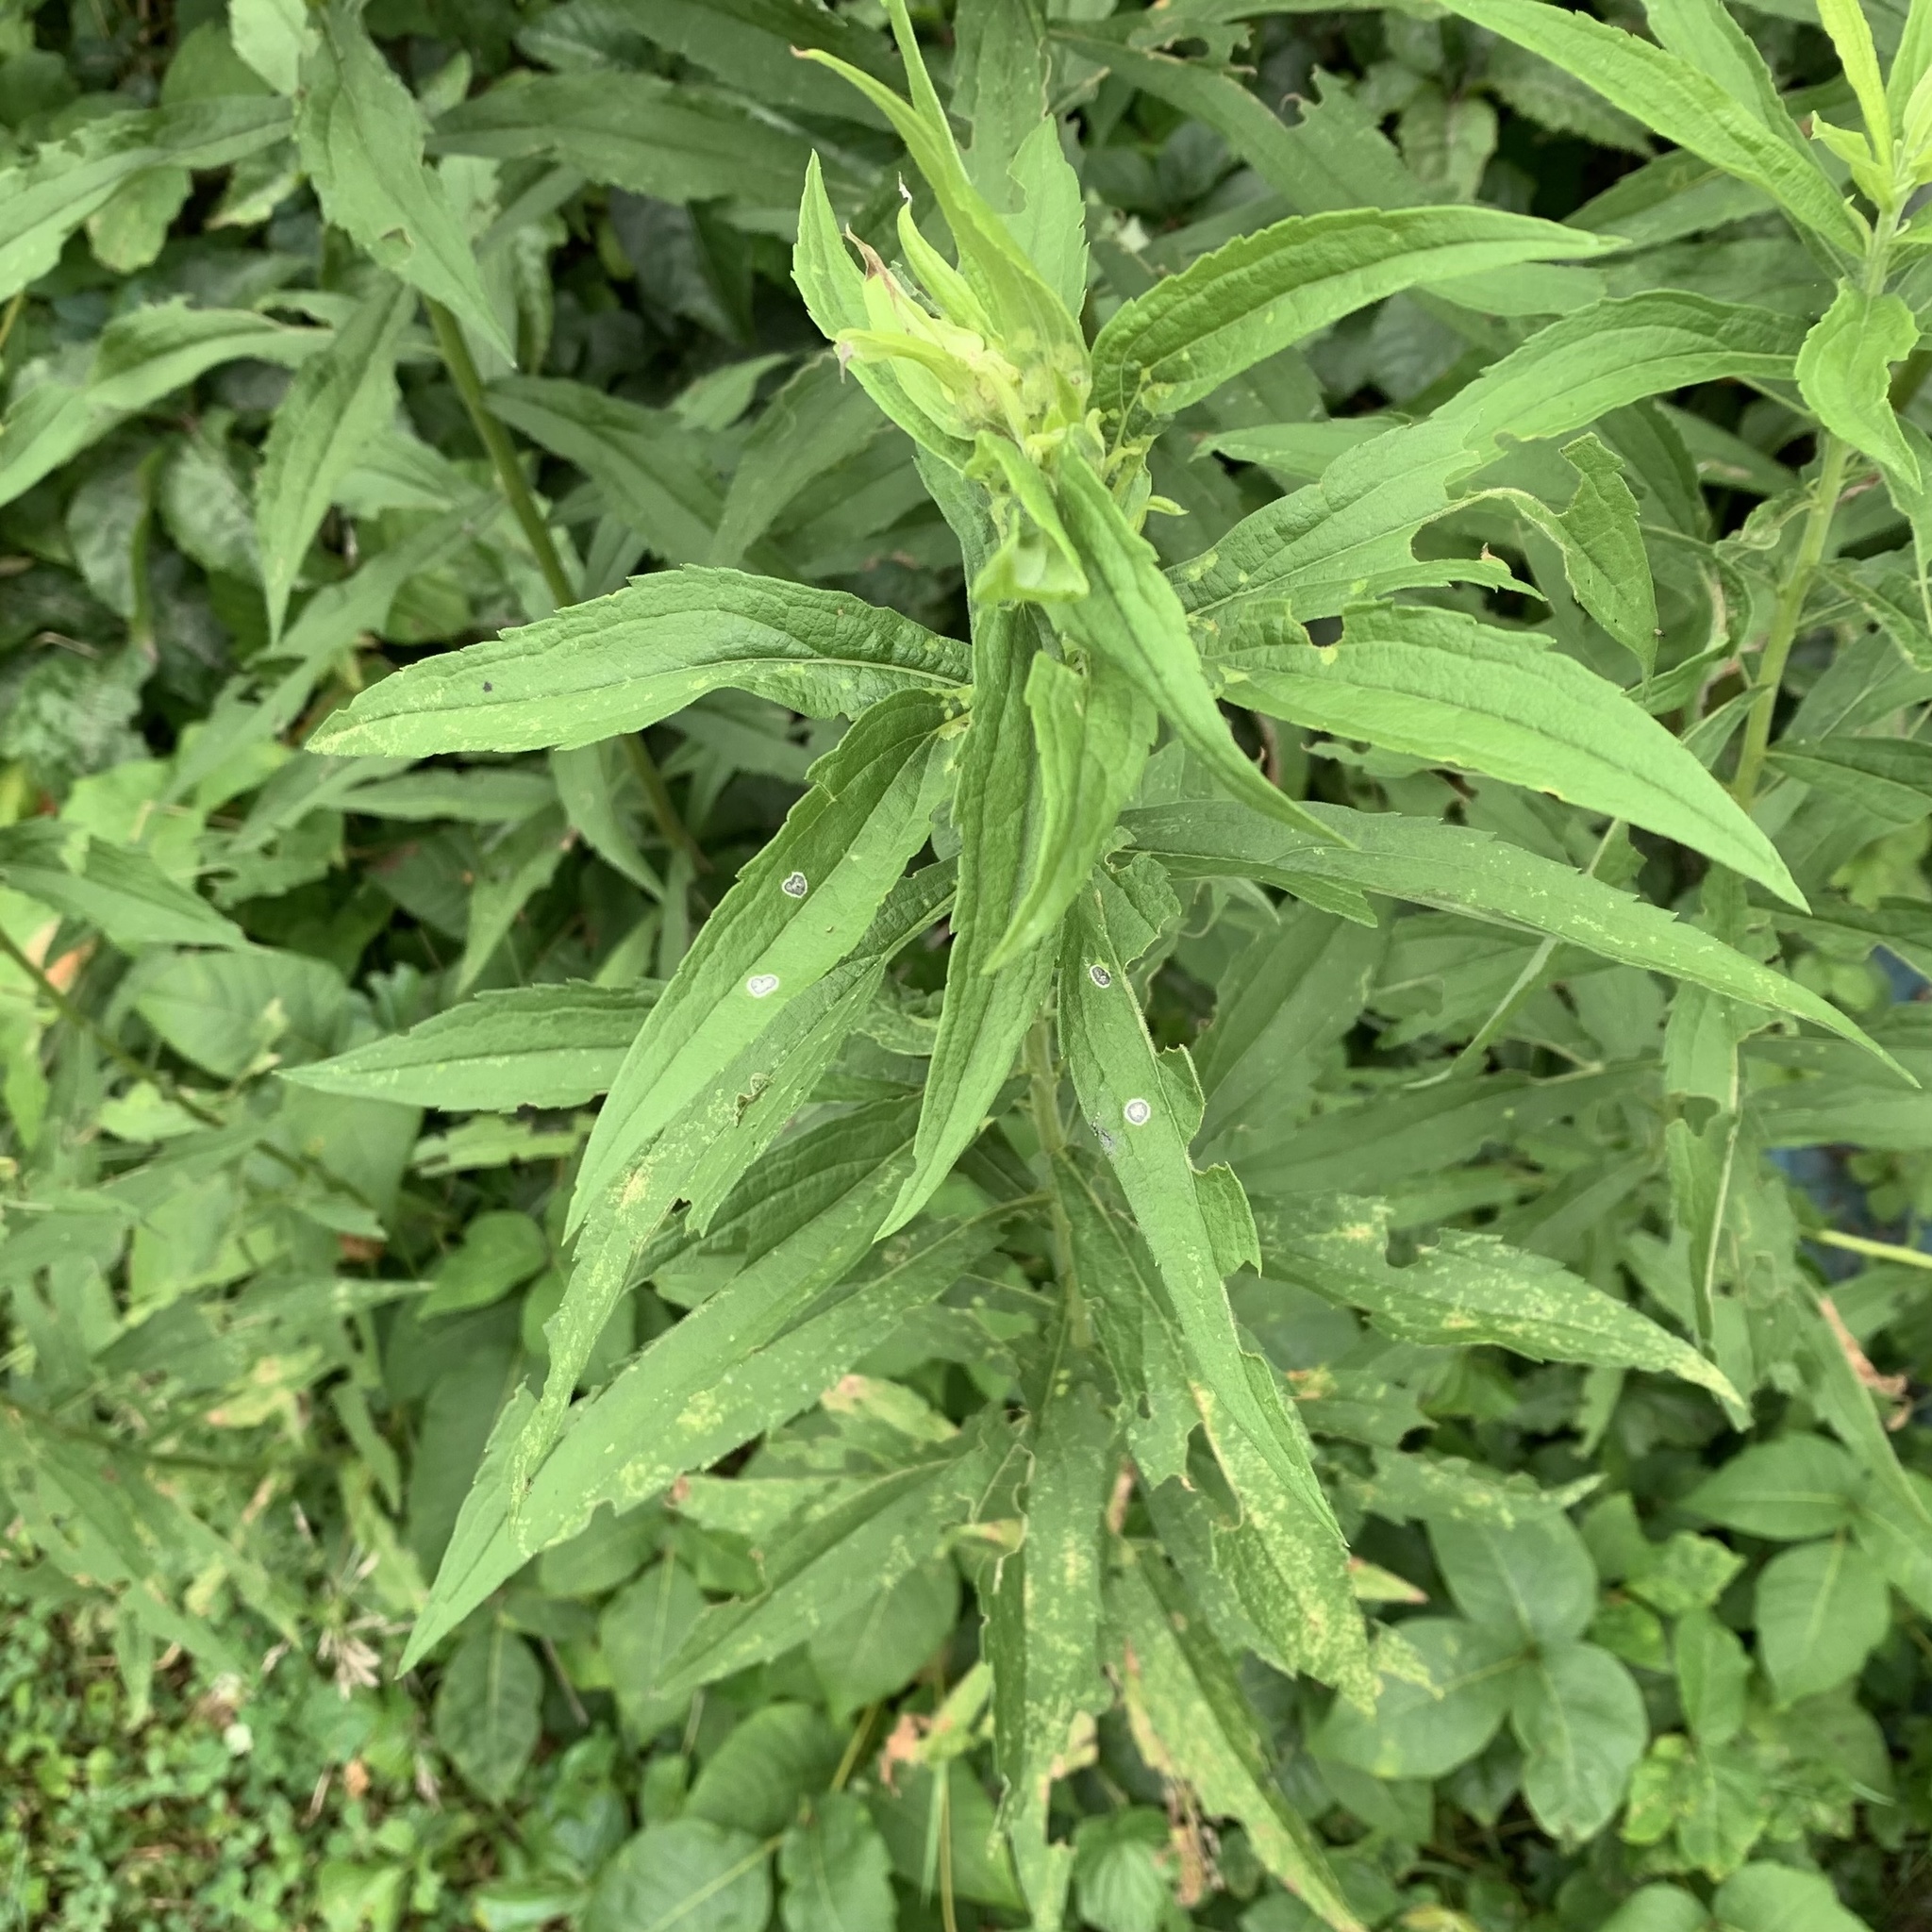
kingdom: Animalia
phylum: Arthropoda
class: Insecta
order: Diptera
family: Cecidomyiidae
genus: Asteromyia
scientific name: Asteromyia carbonifera
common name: Carbonifera goldenrod gall midge
